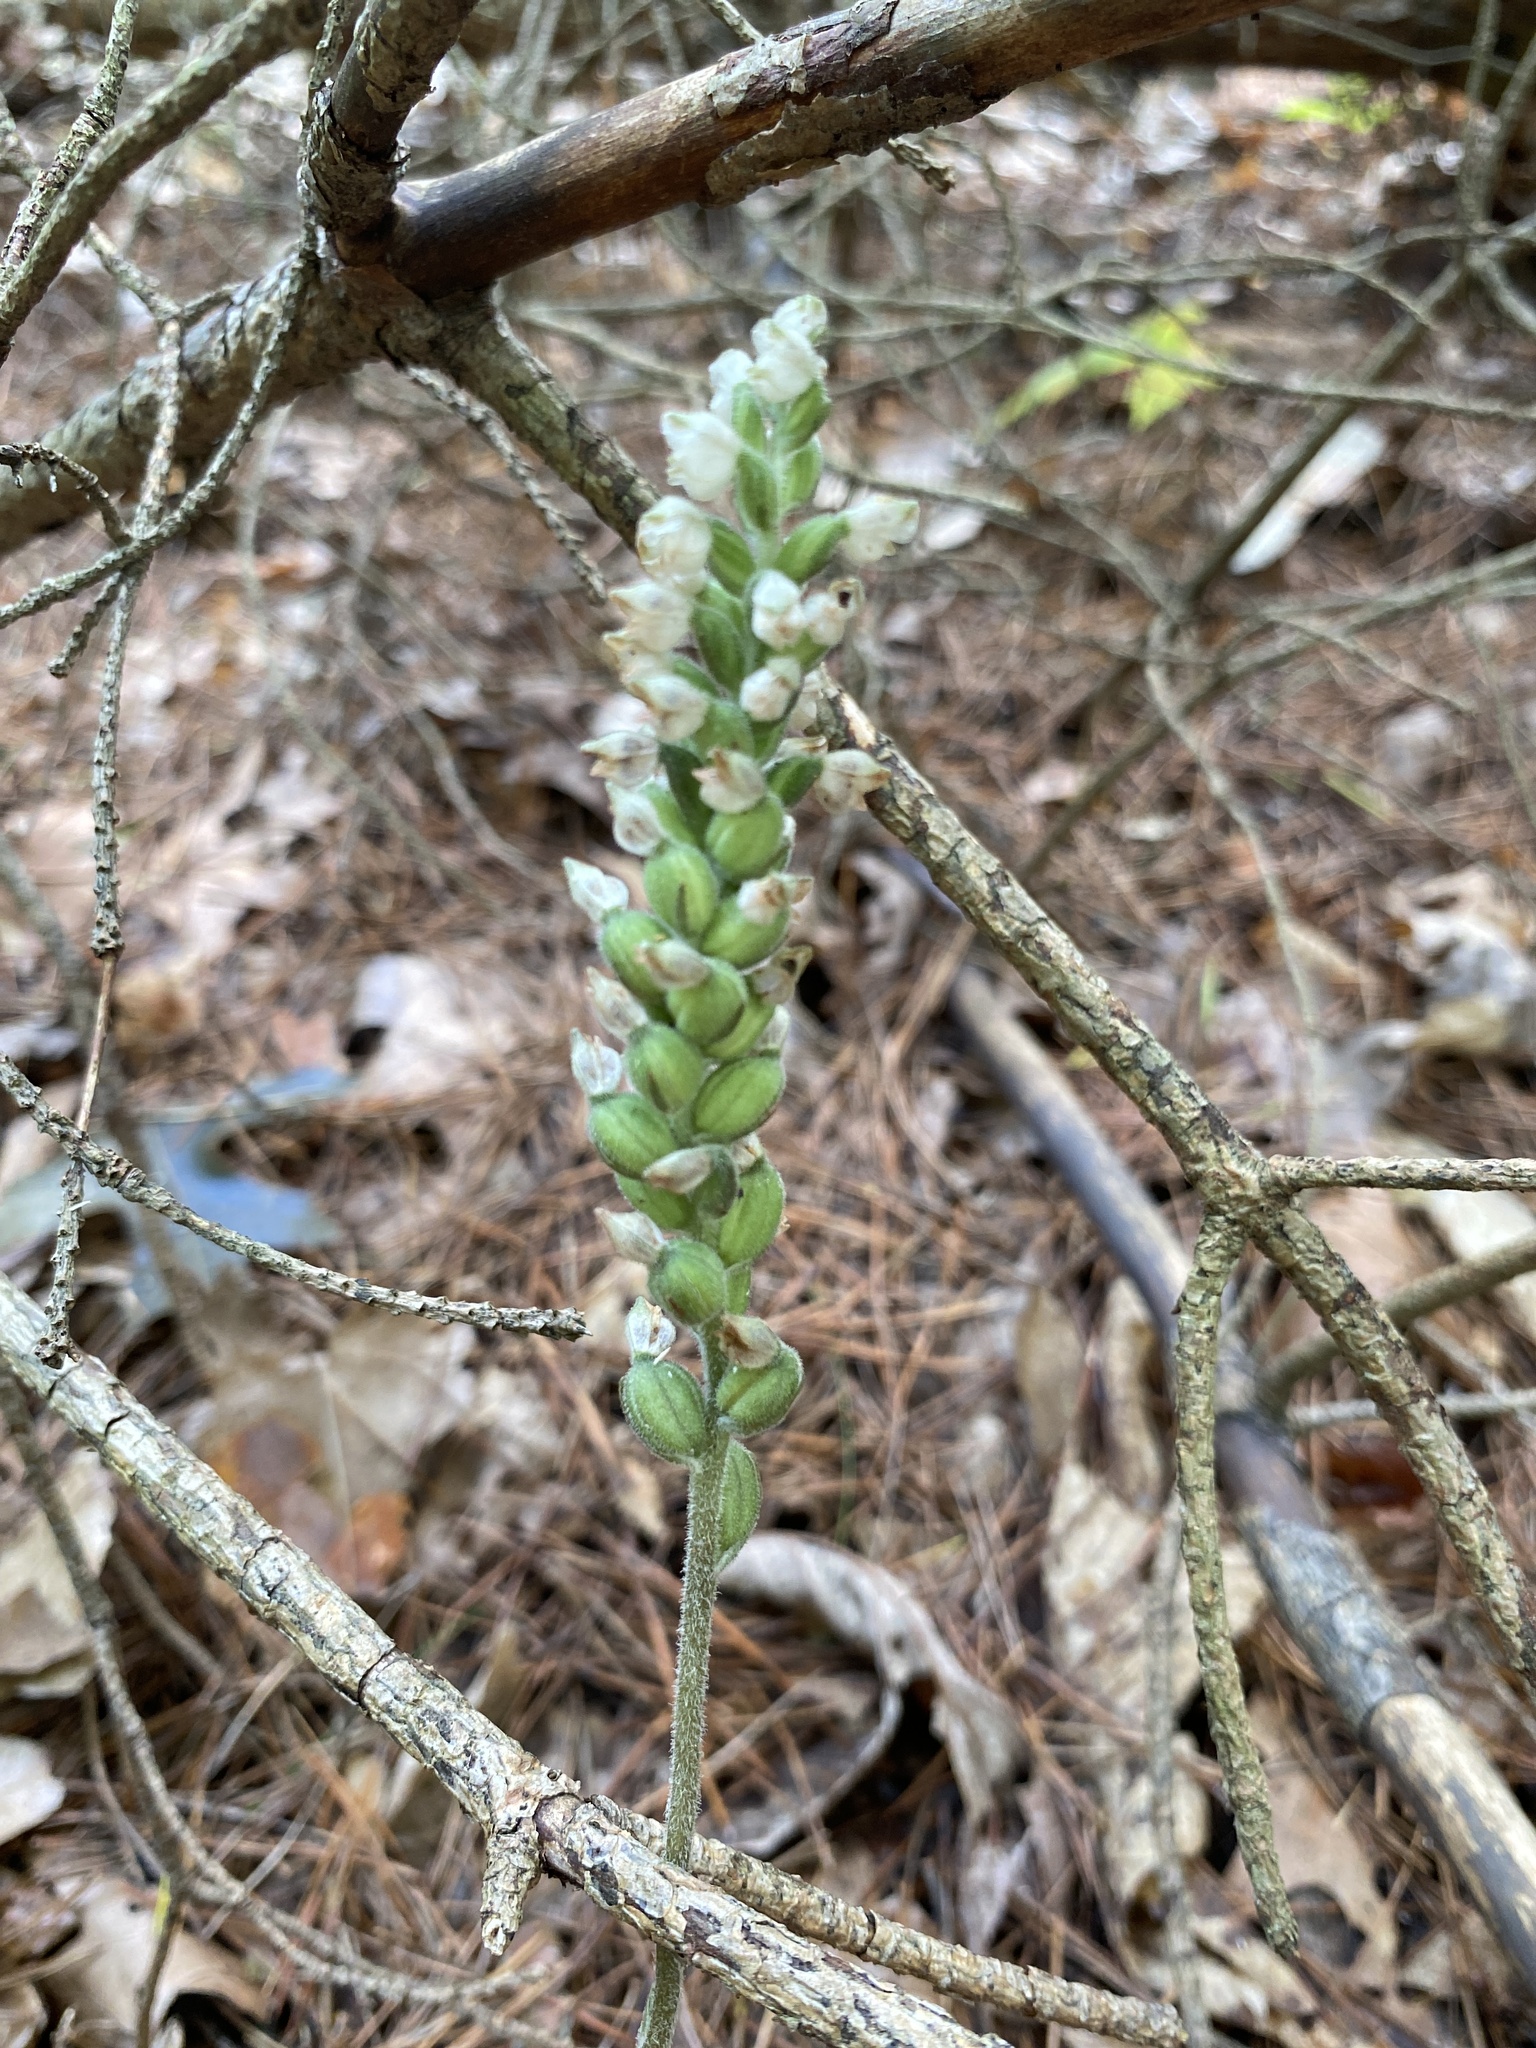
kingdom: Plantae
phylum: Tracheophyta
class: Liliopsida
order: Asparagales
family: Orchidaceae
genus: Goodyera
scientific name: Goodyera pubescens
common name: Downy rattlesnake-plantain
